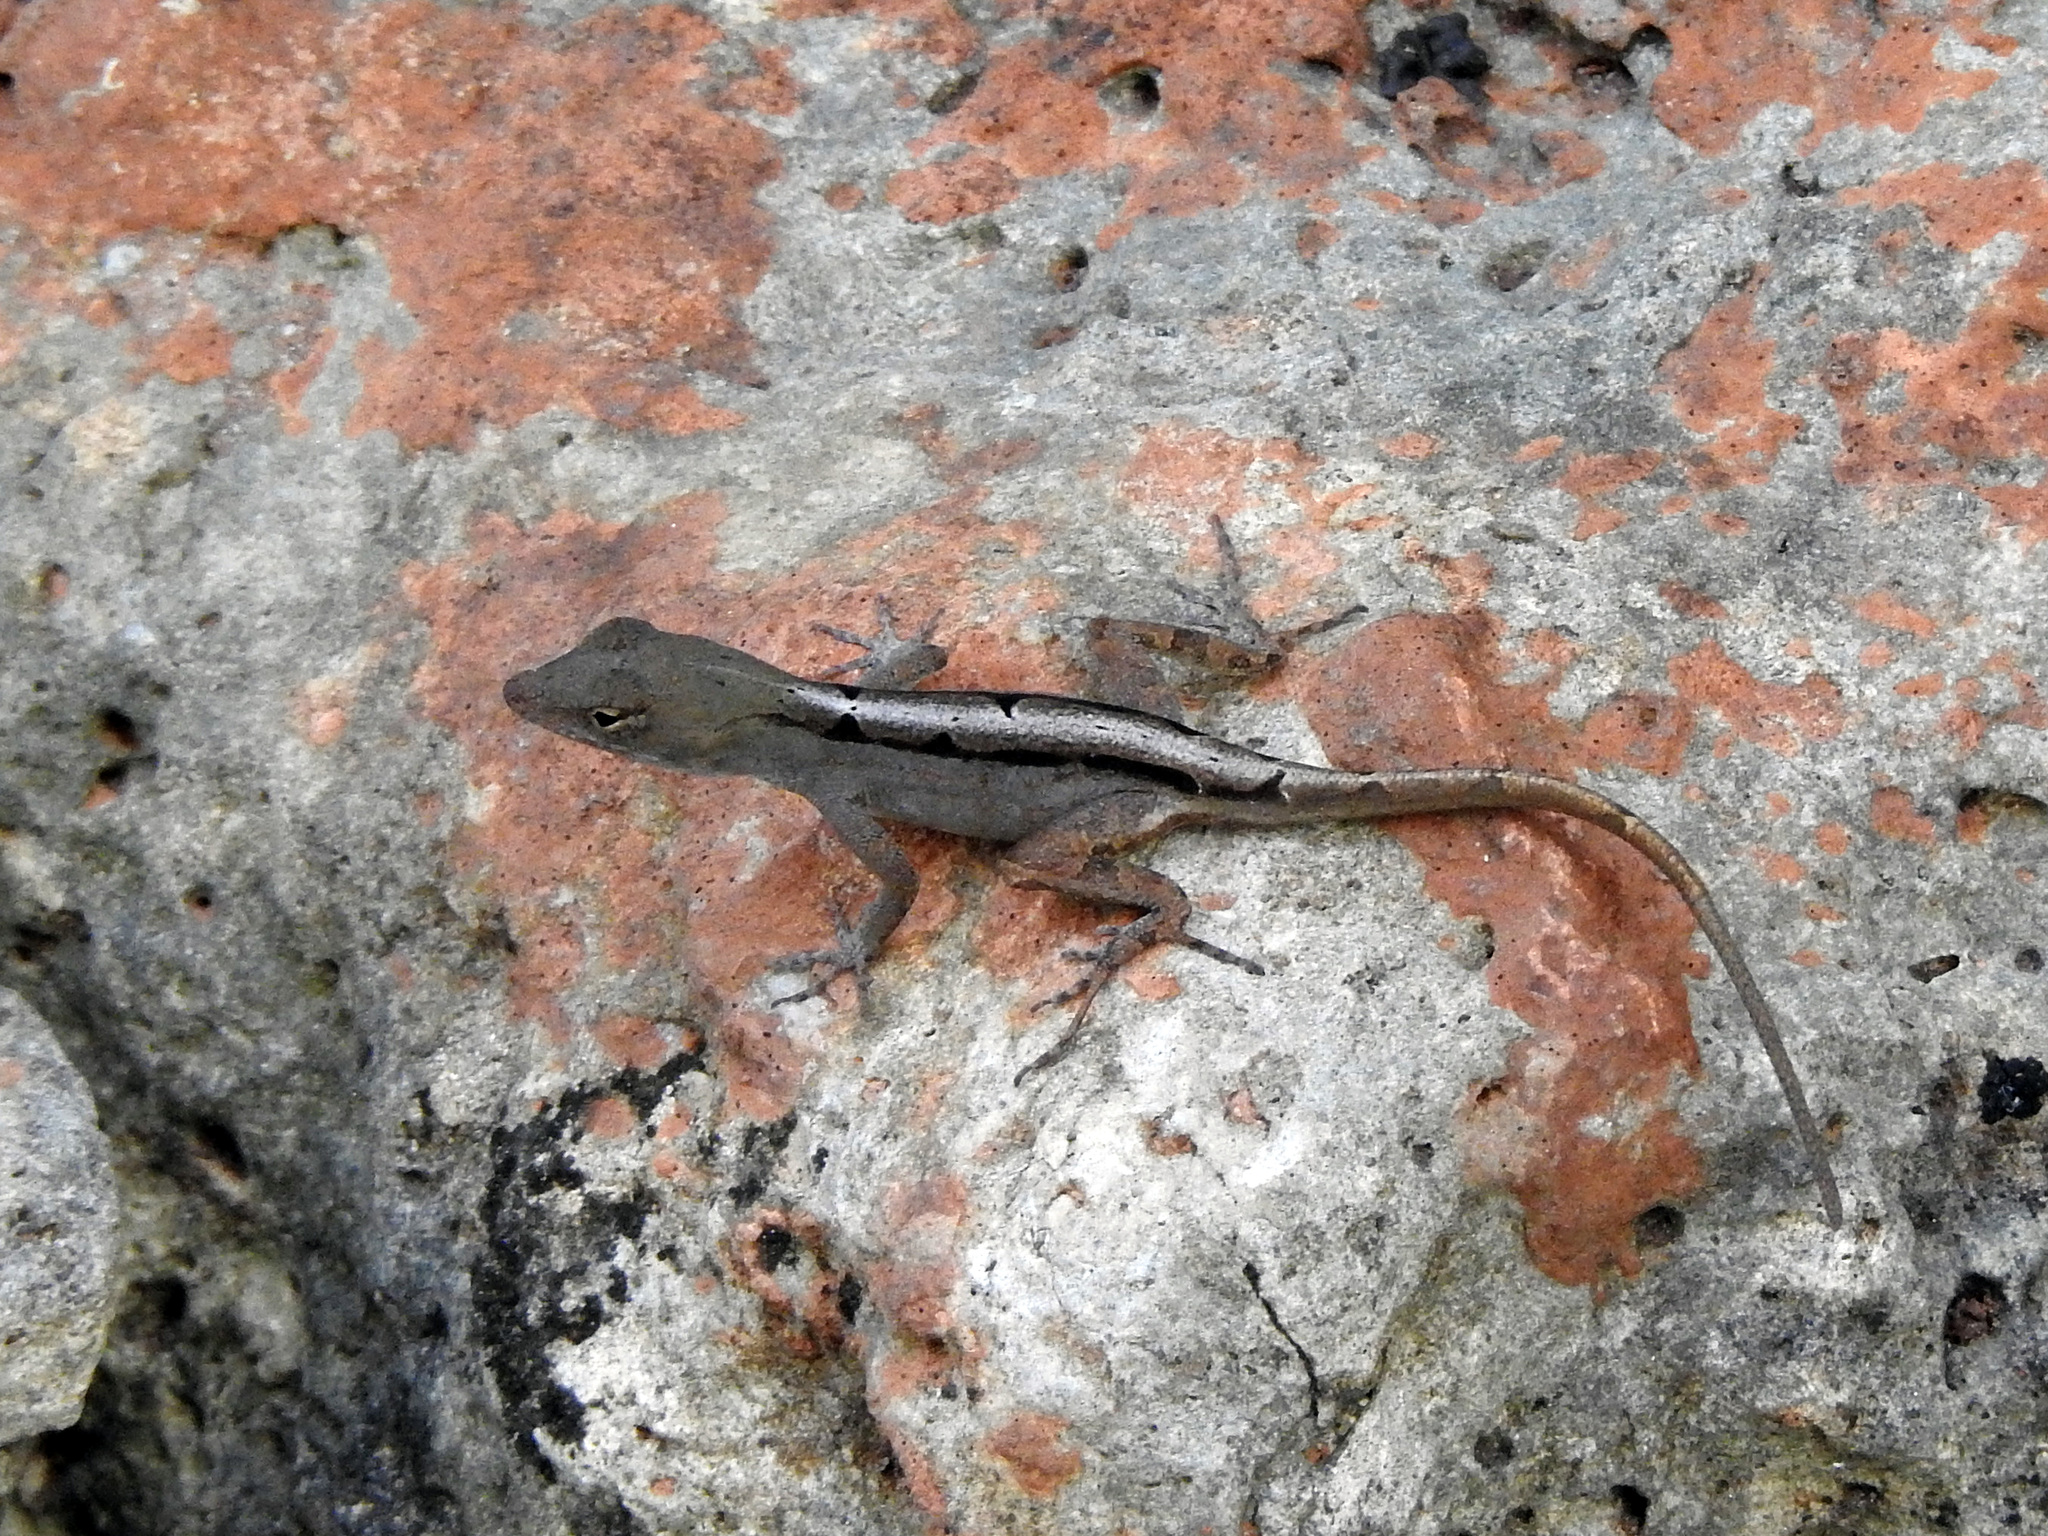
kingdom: Animalia
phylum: Chordata
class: Squamata
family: Dactyloidae
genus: Anolis
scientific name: Anolis sagrei
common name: Brown anole
